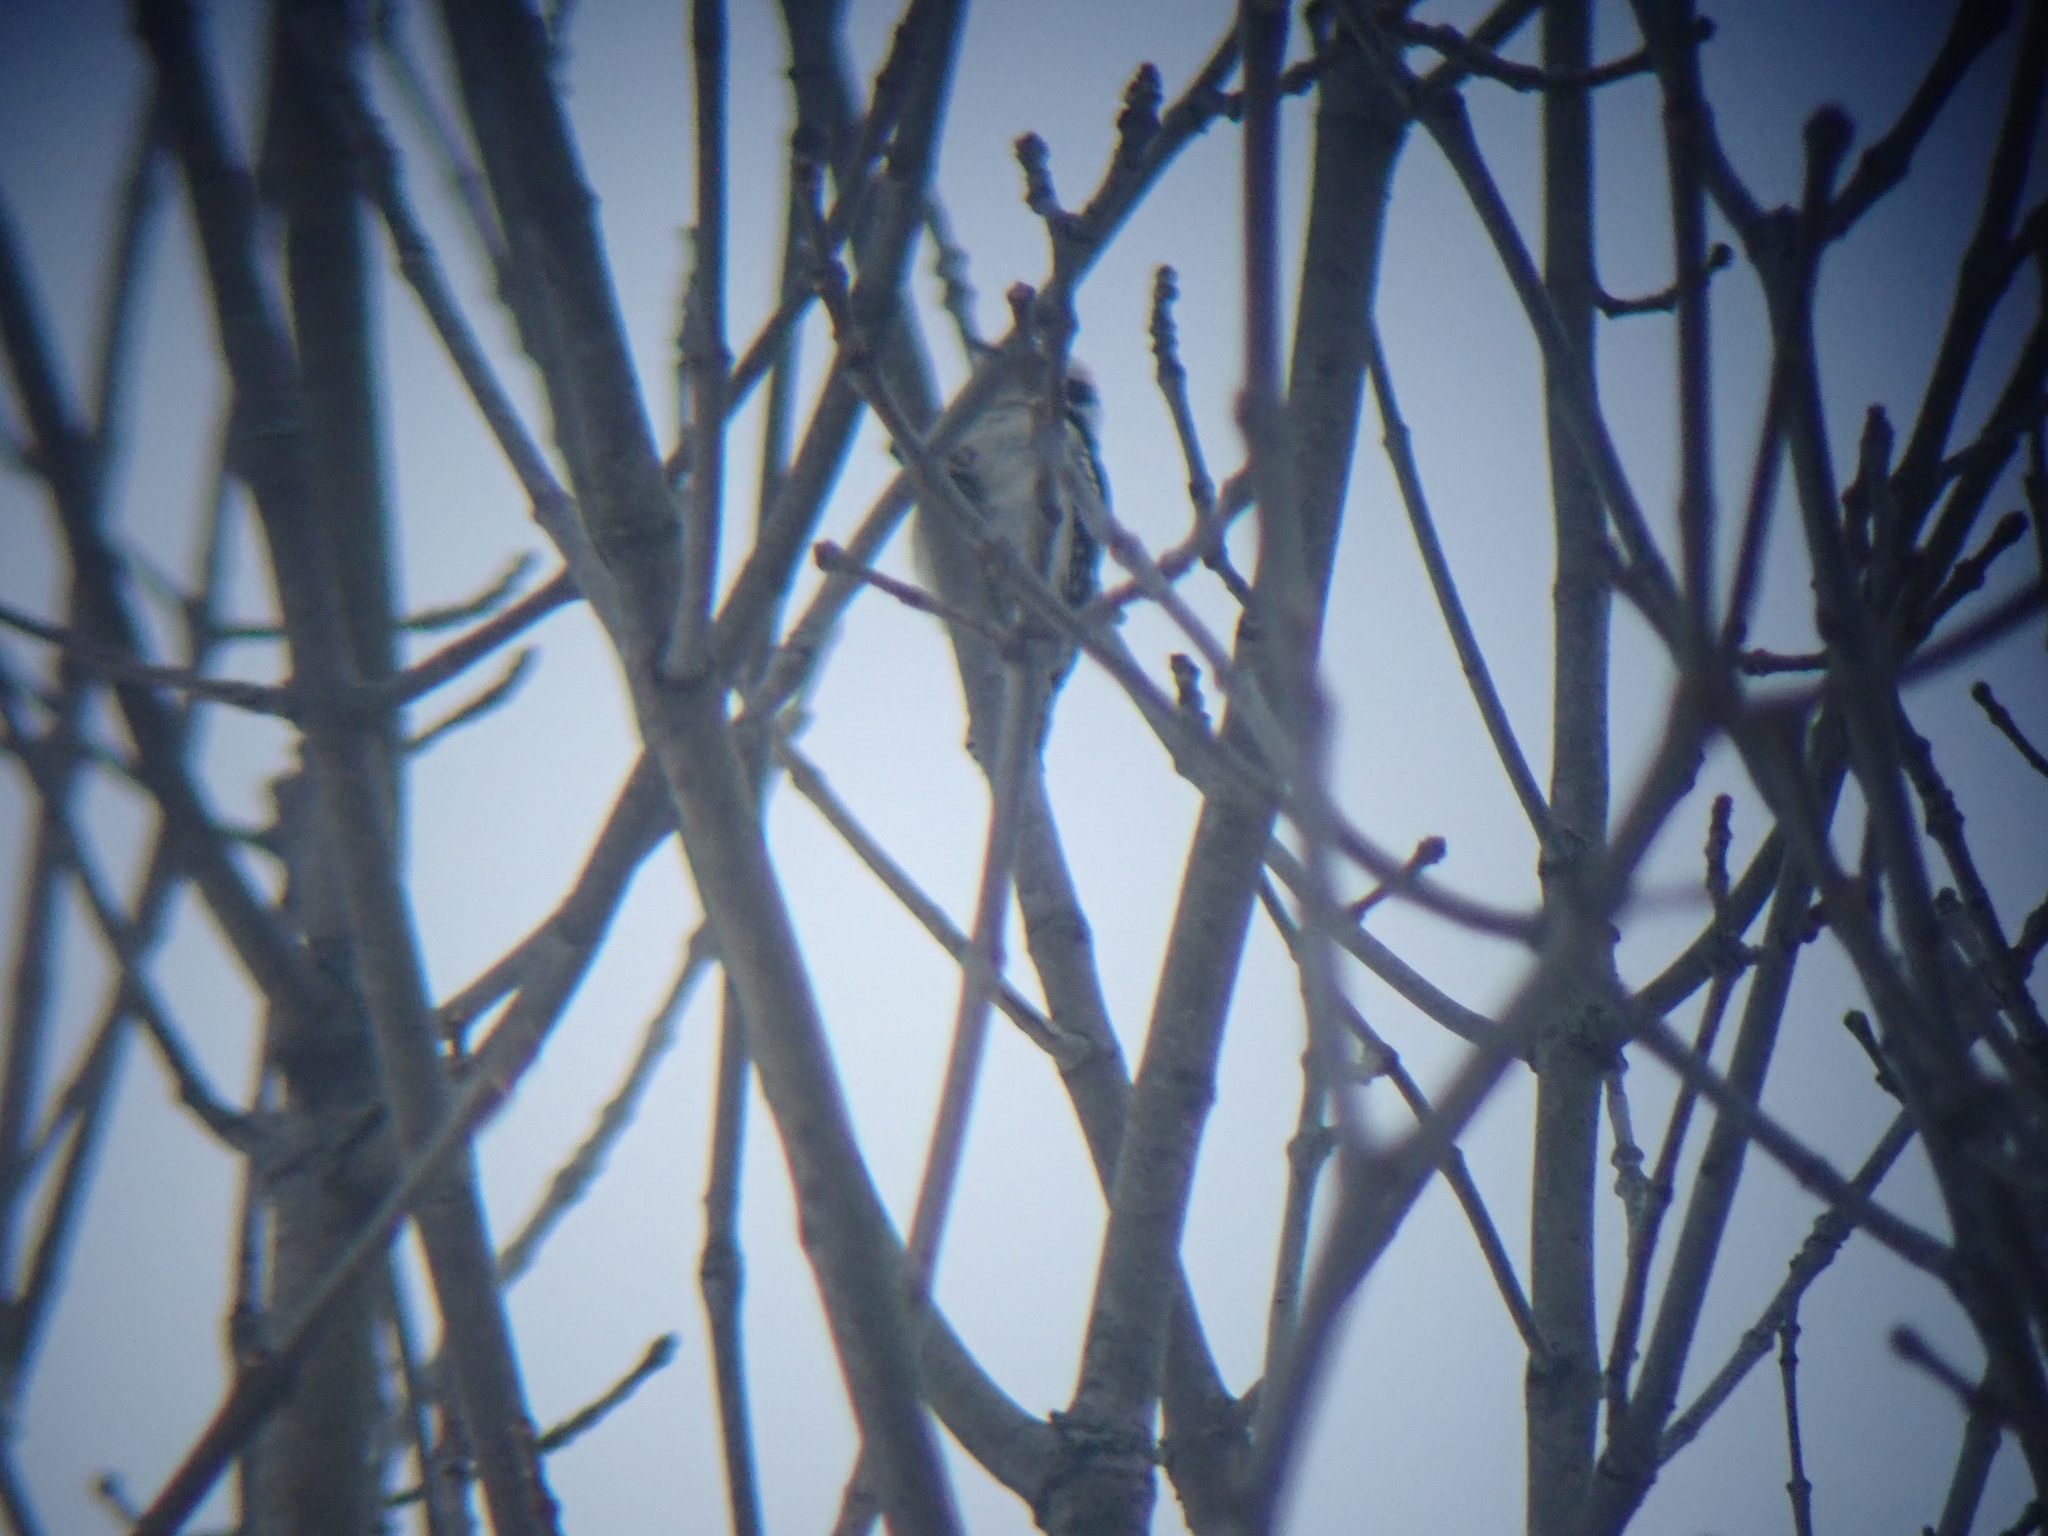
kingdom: Animalia
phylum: Chordata
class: Aves
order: Piciformes
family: Picidae
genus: Dryobates
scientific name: Dryobates pubescens
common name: Downy woodpecker
